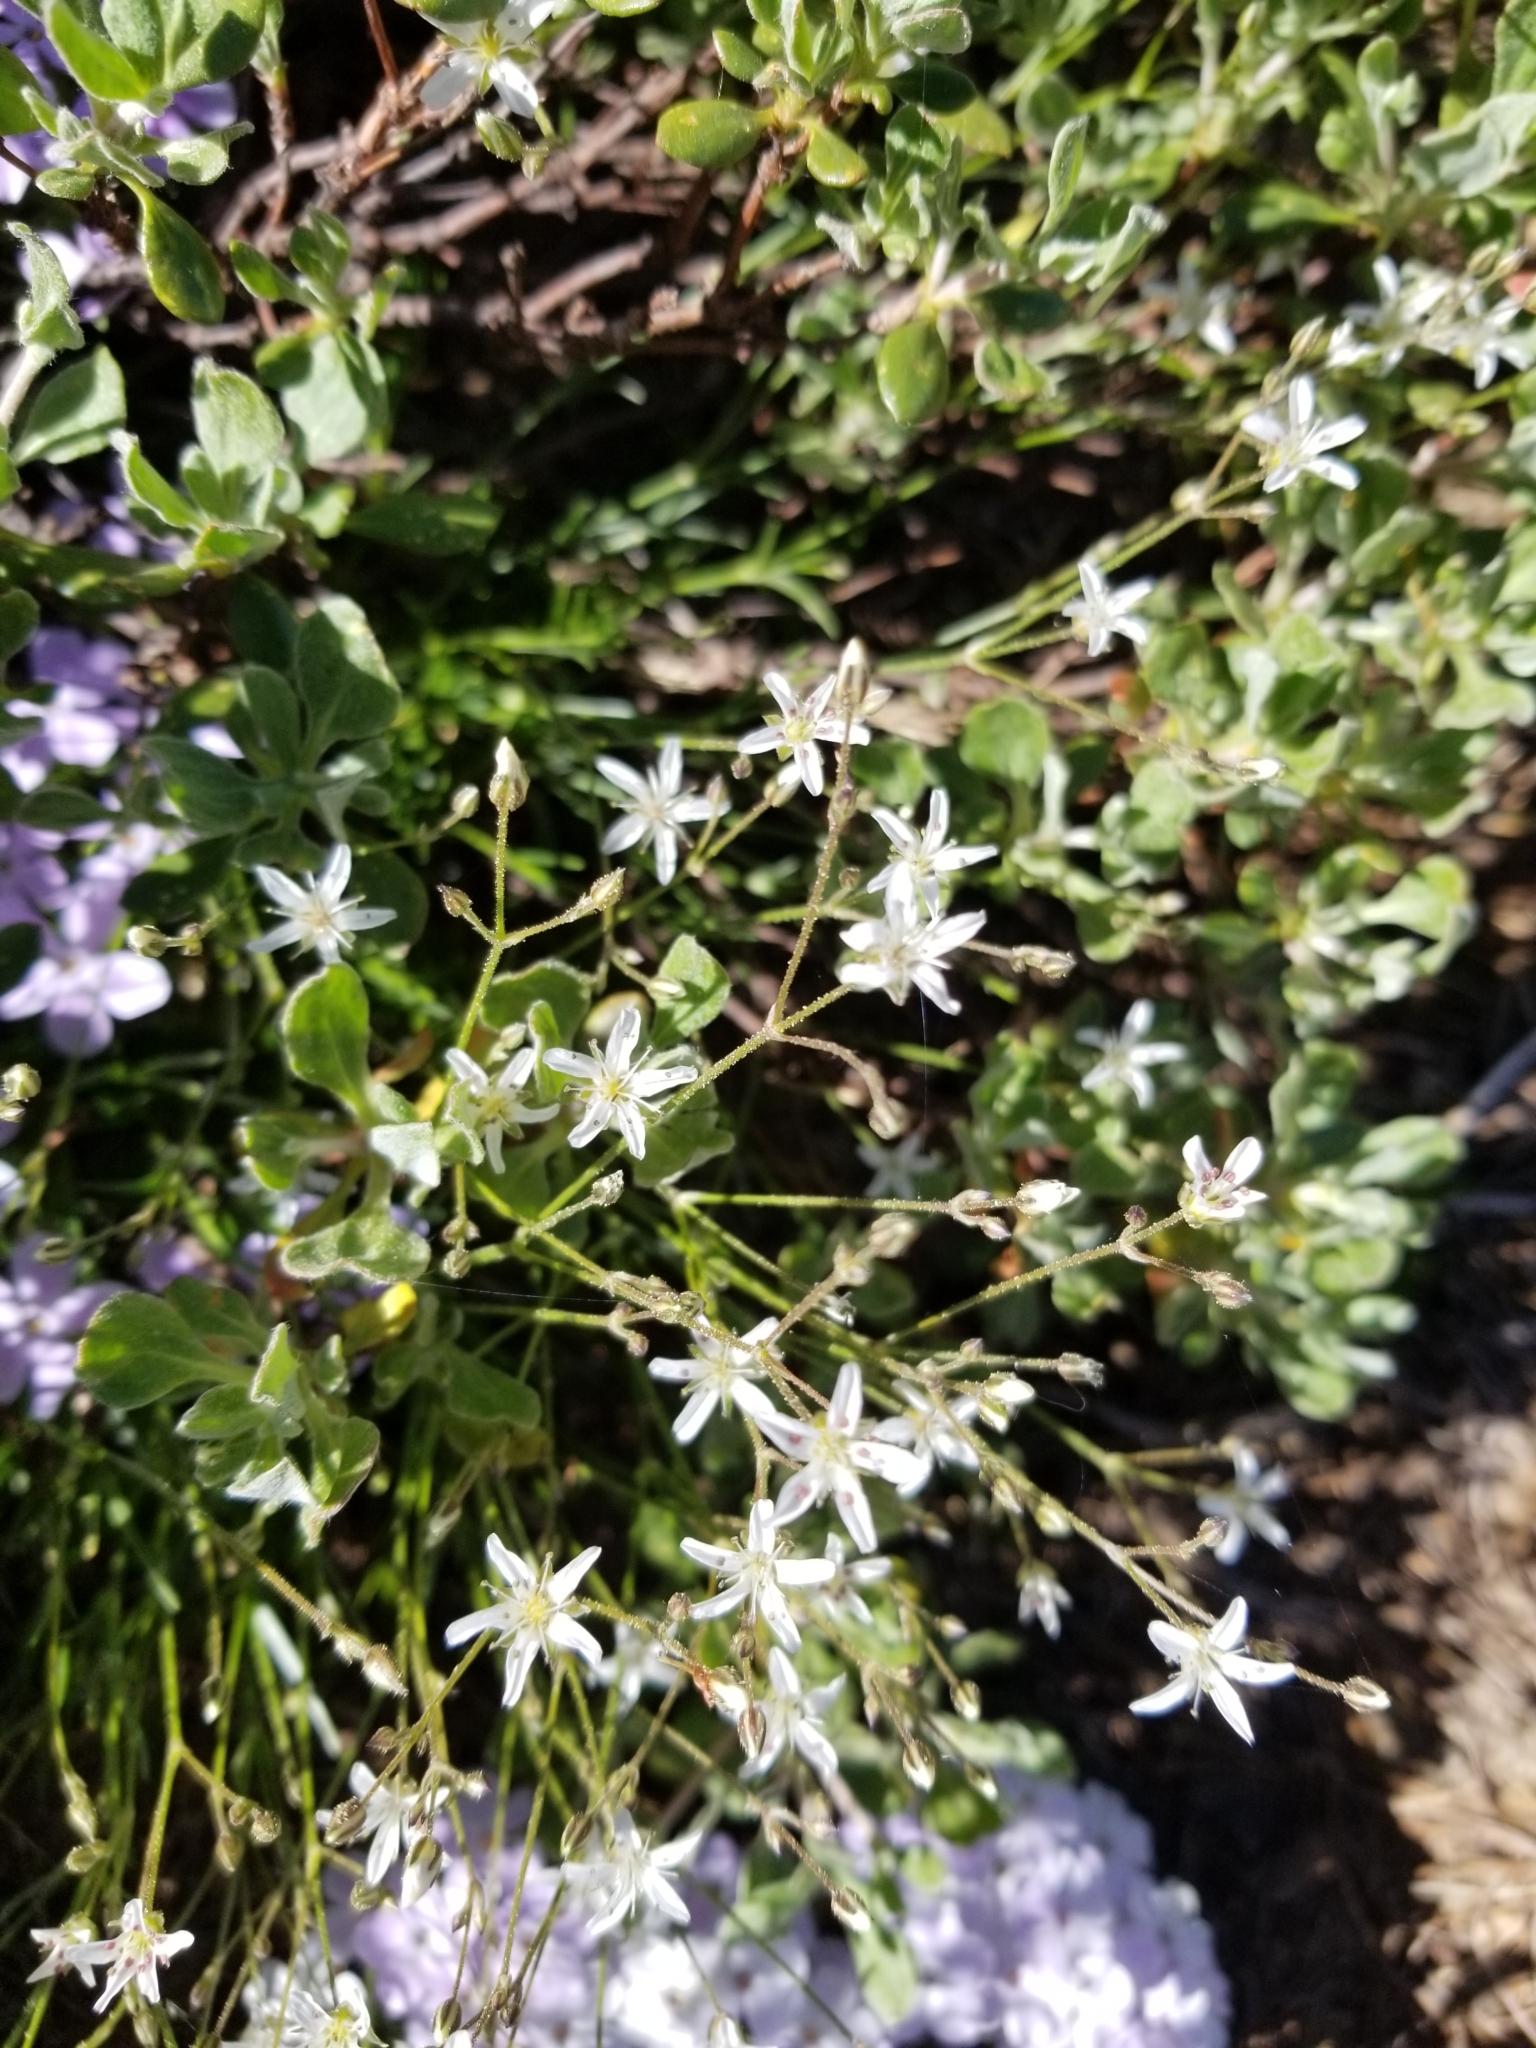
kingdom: Plantae
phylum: Tracheophyta
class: Magnoliopsida
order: Caryophyllales
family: Caryophyllaceae
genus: Eremogone
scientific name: Eremogone kingii
